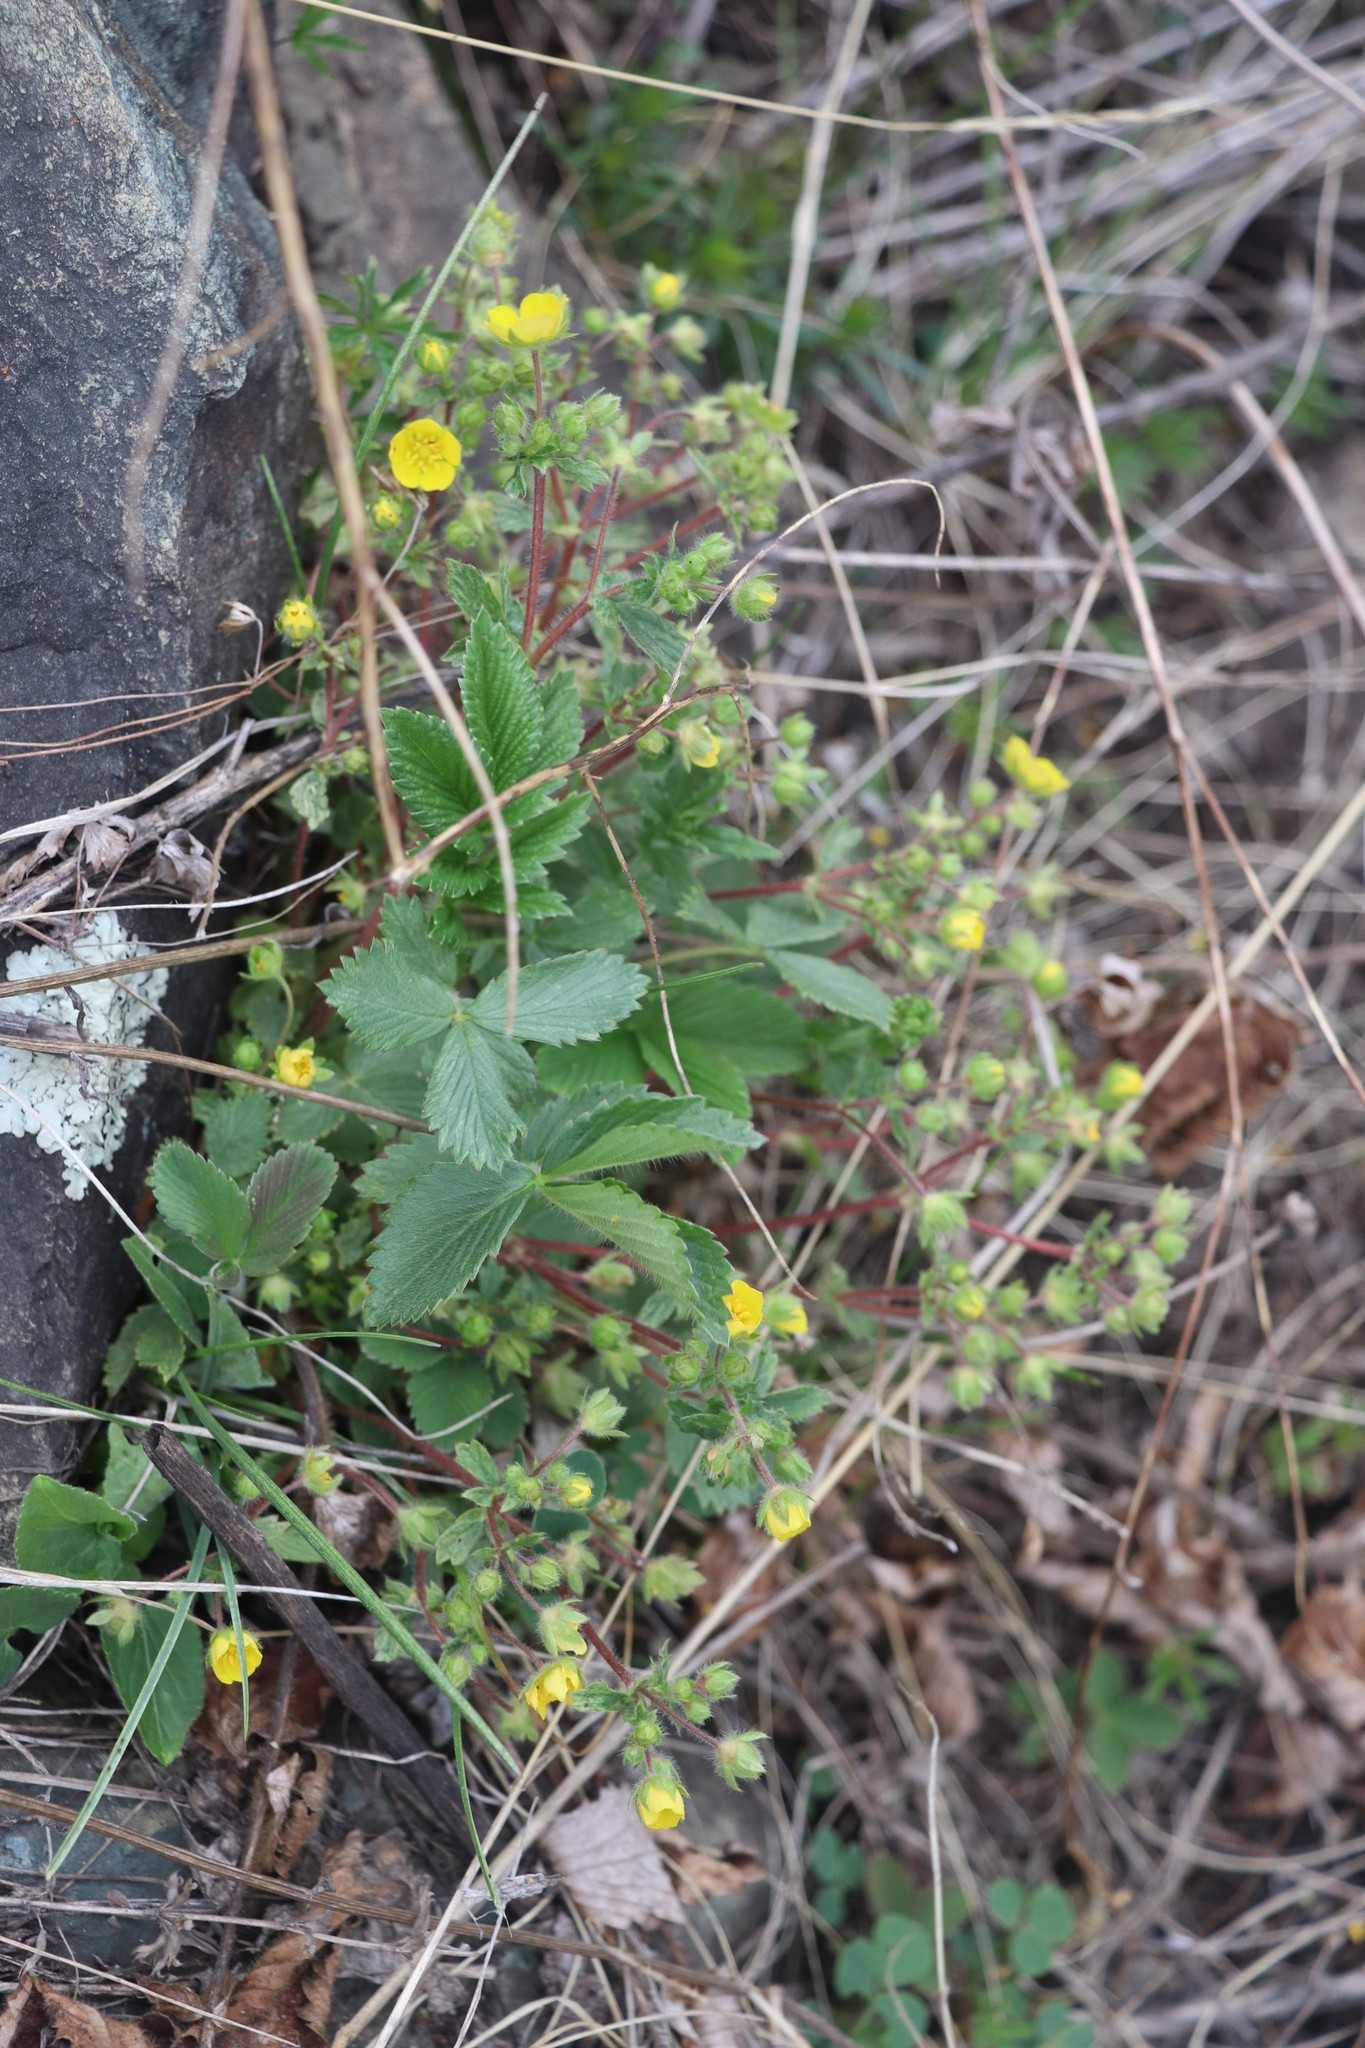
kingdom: Plantae
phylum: Tracheophyta
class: Magnoliopsida
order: Rosales
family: Rosaceae
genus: Potentilla
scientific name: Potentilla fragarioides
